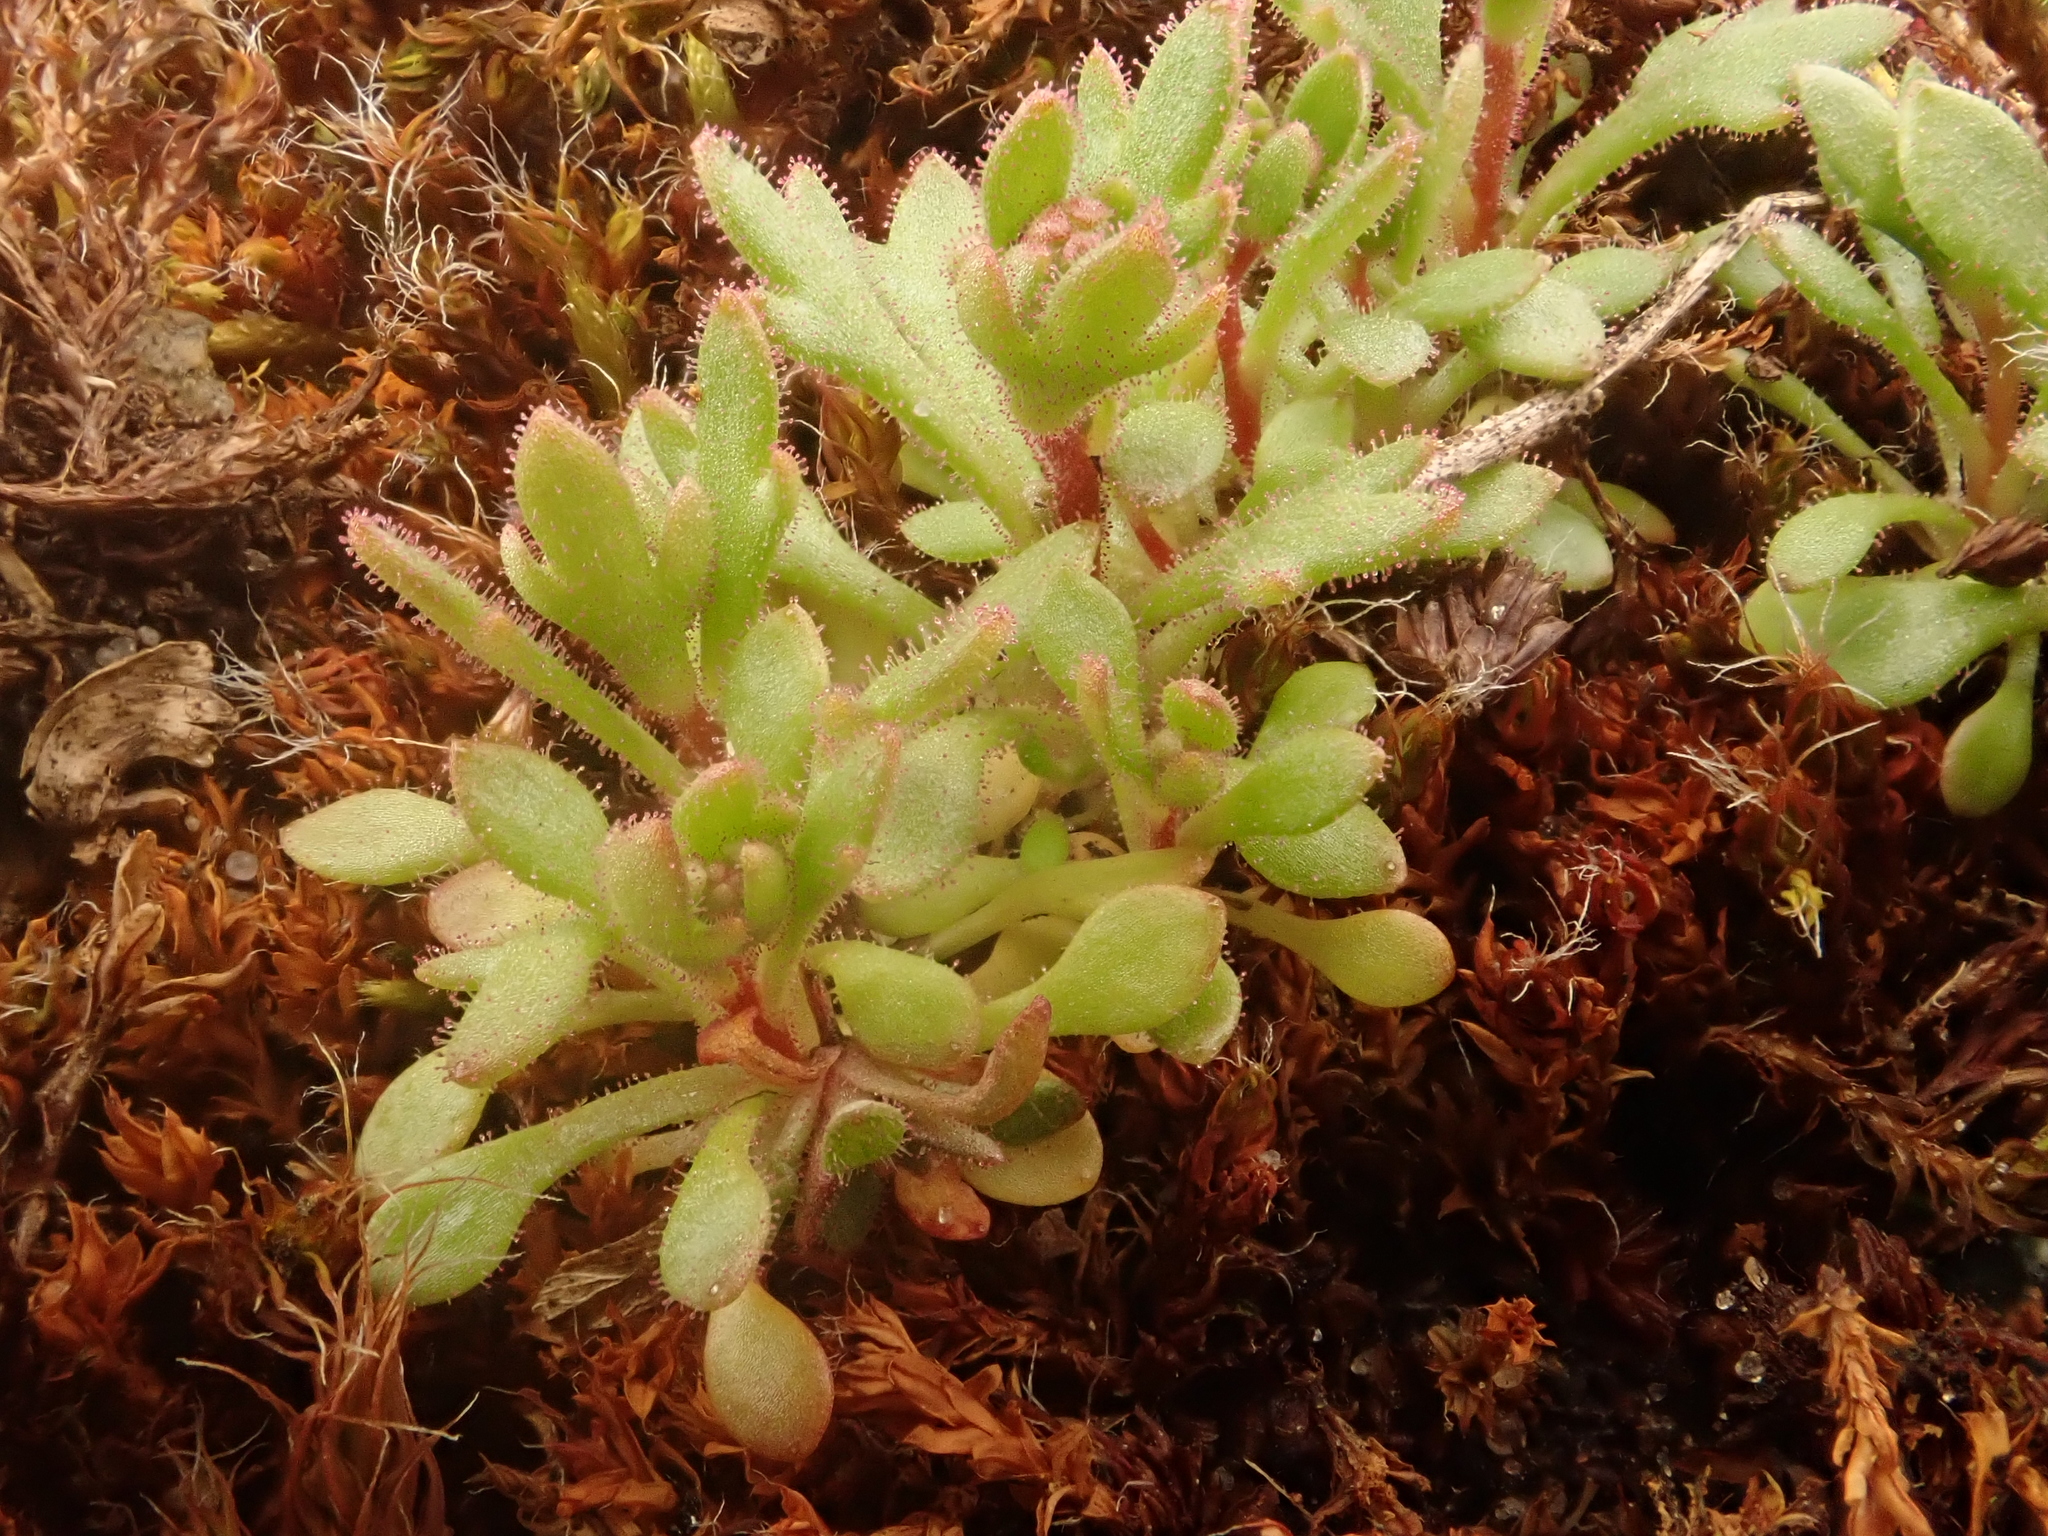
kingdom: Plantae
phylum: Tracheophyta
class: Magnoliopsida
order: Saxifragales
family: Saxifragaceae
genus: Saxifraga
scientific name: Saxifraga tridactylites
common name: Rue-leaved saxifrage
